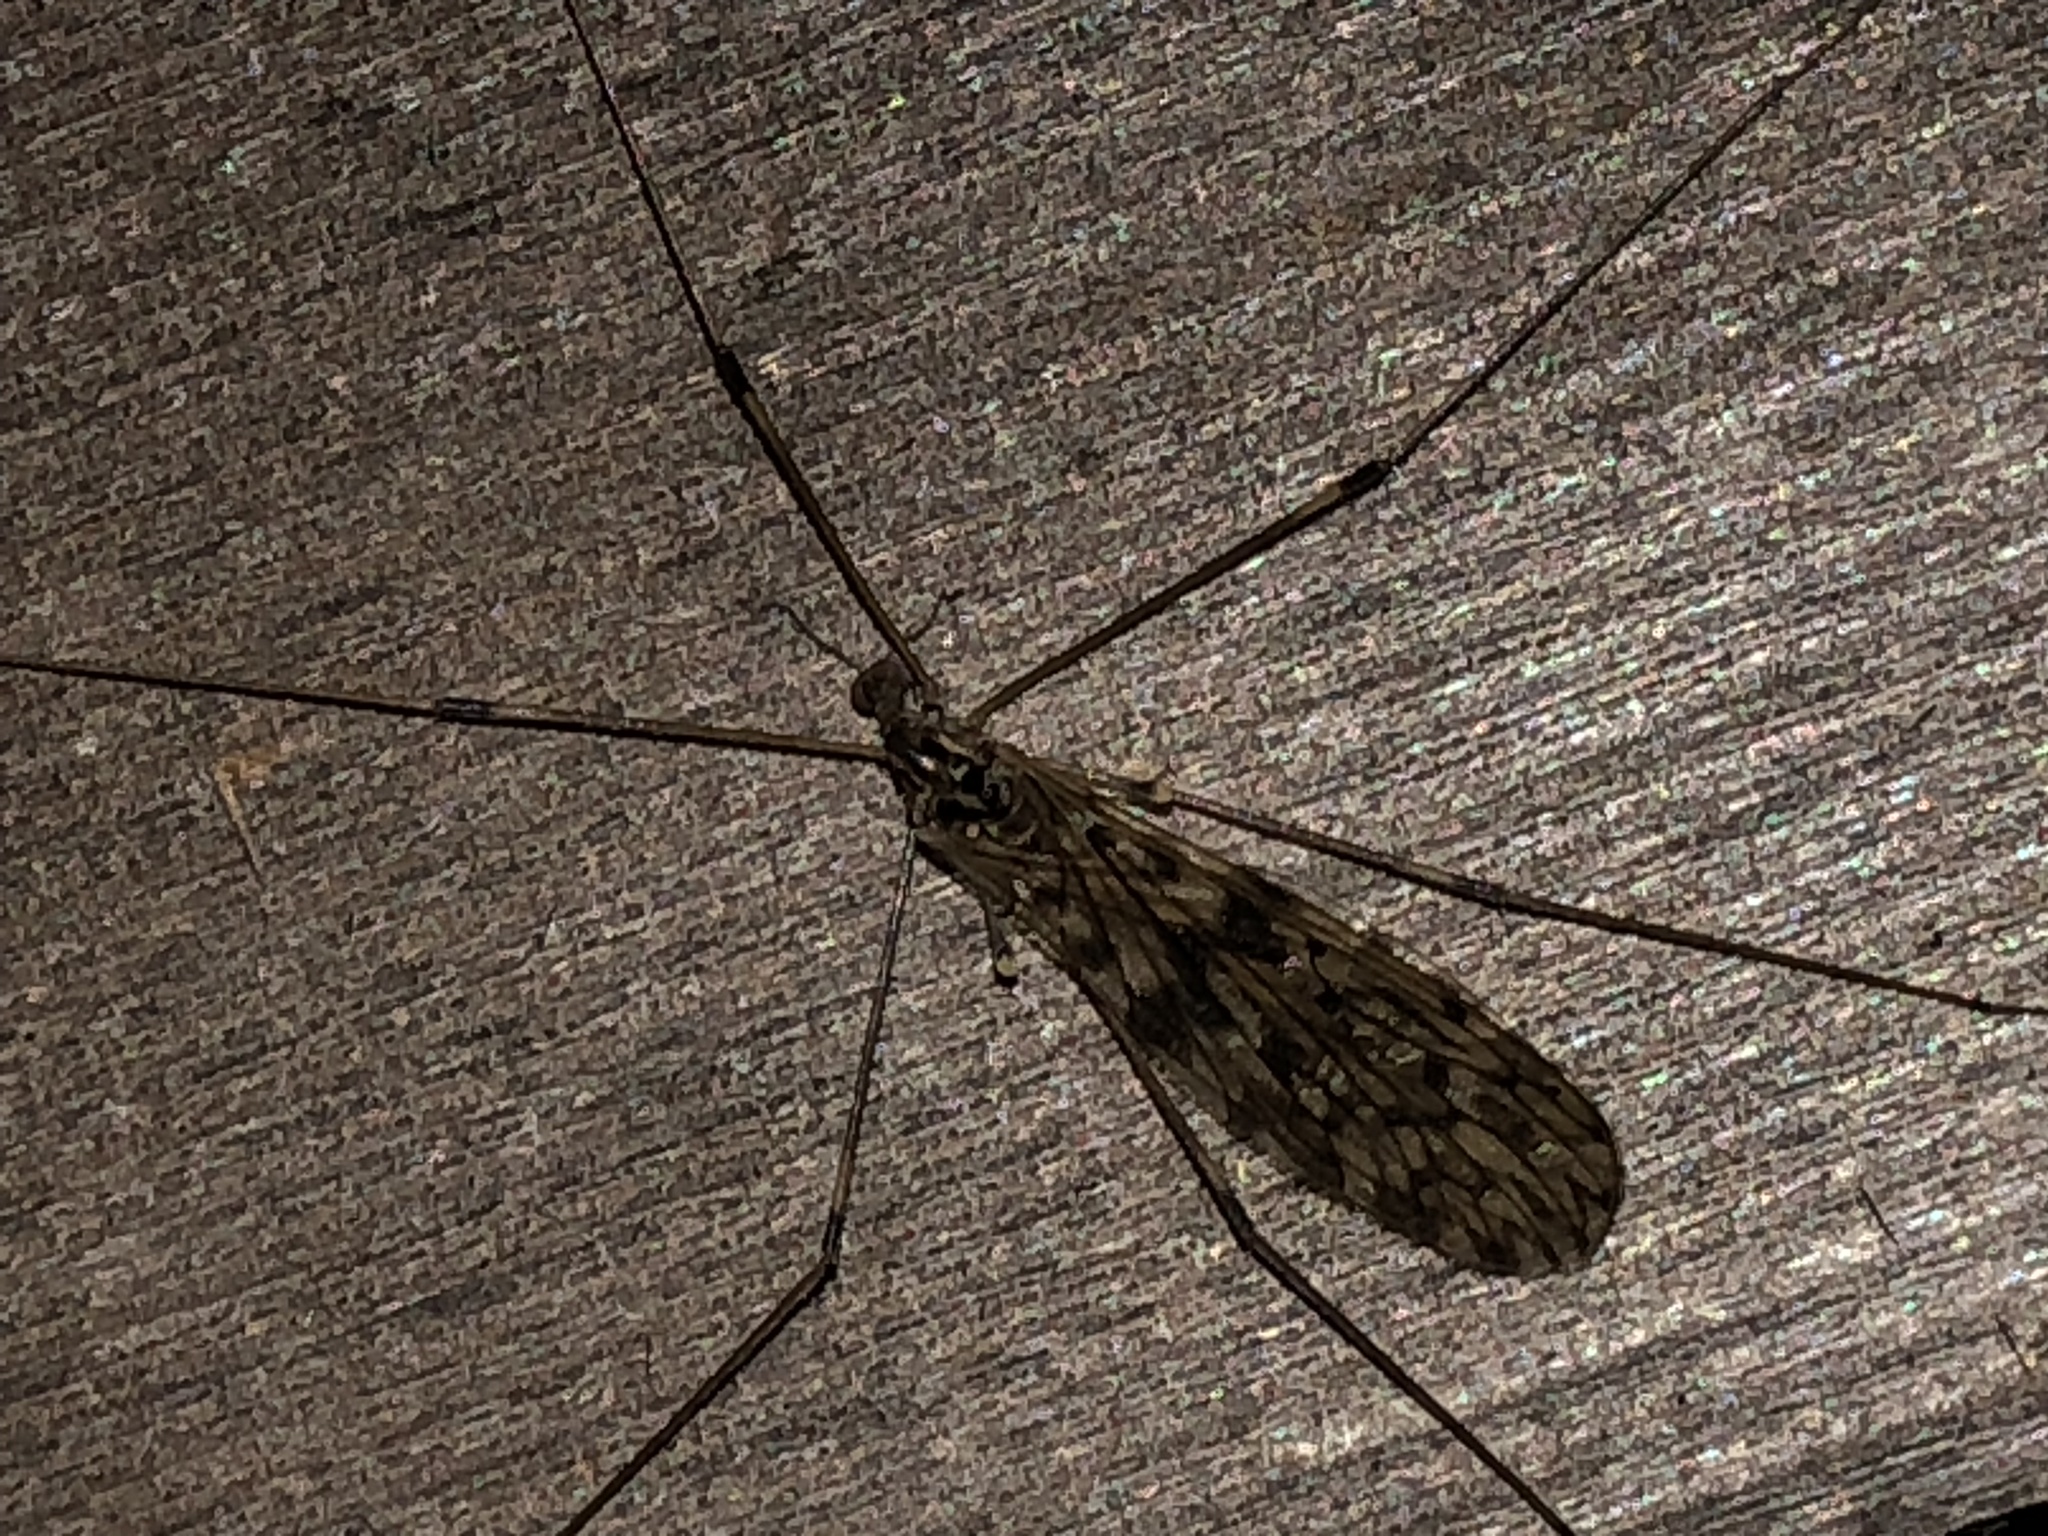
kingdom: Animalia
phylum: Arthropoda
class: Insecta
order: Diptera
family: Limoniidae
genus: Limonia
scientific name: Limonia parietina
